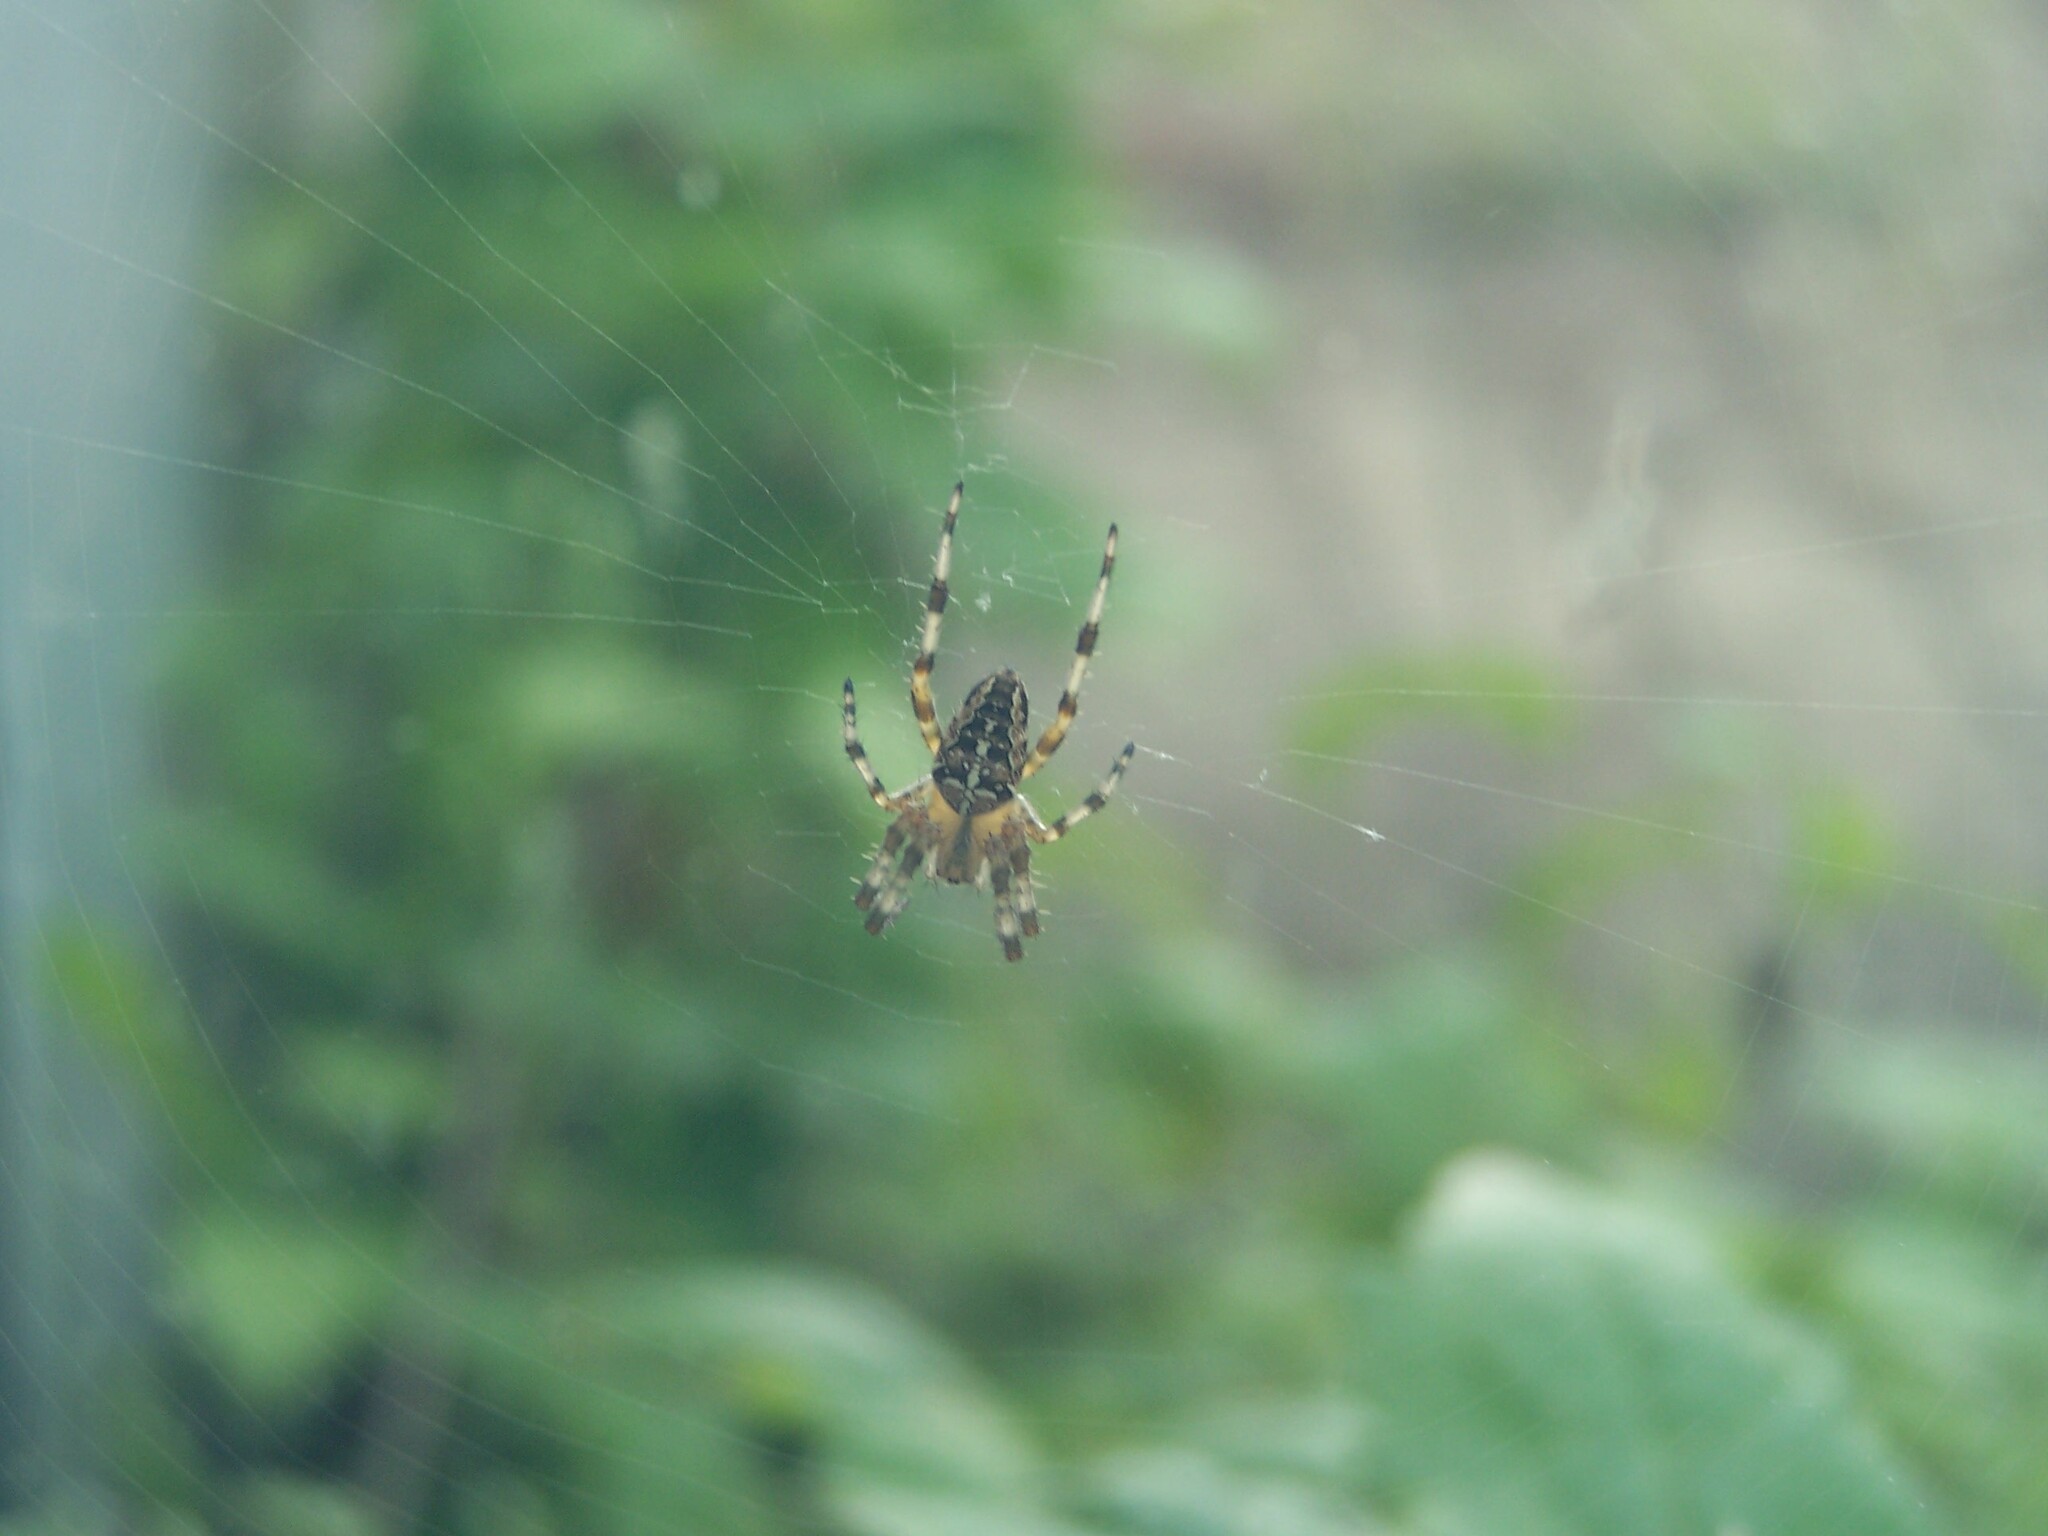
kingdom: Animalia
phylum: Arthropoda
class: Arachnida
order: Araneae
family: Araneidae
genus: Araneus
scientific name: Araneus diadematus
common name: Cross orbweaver
